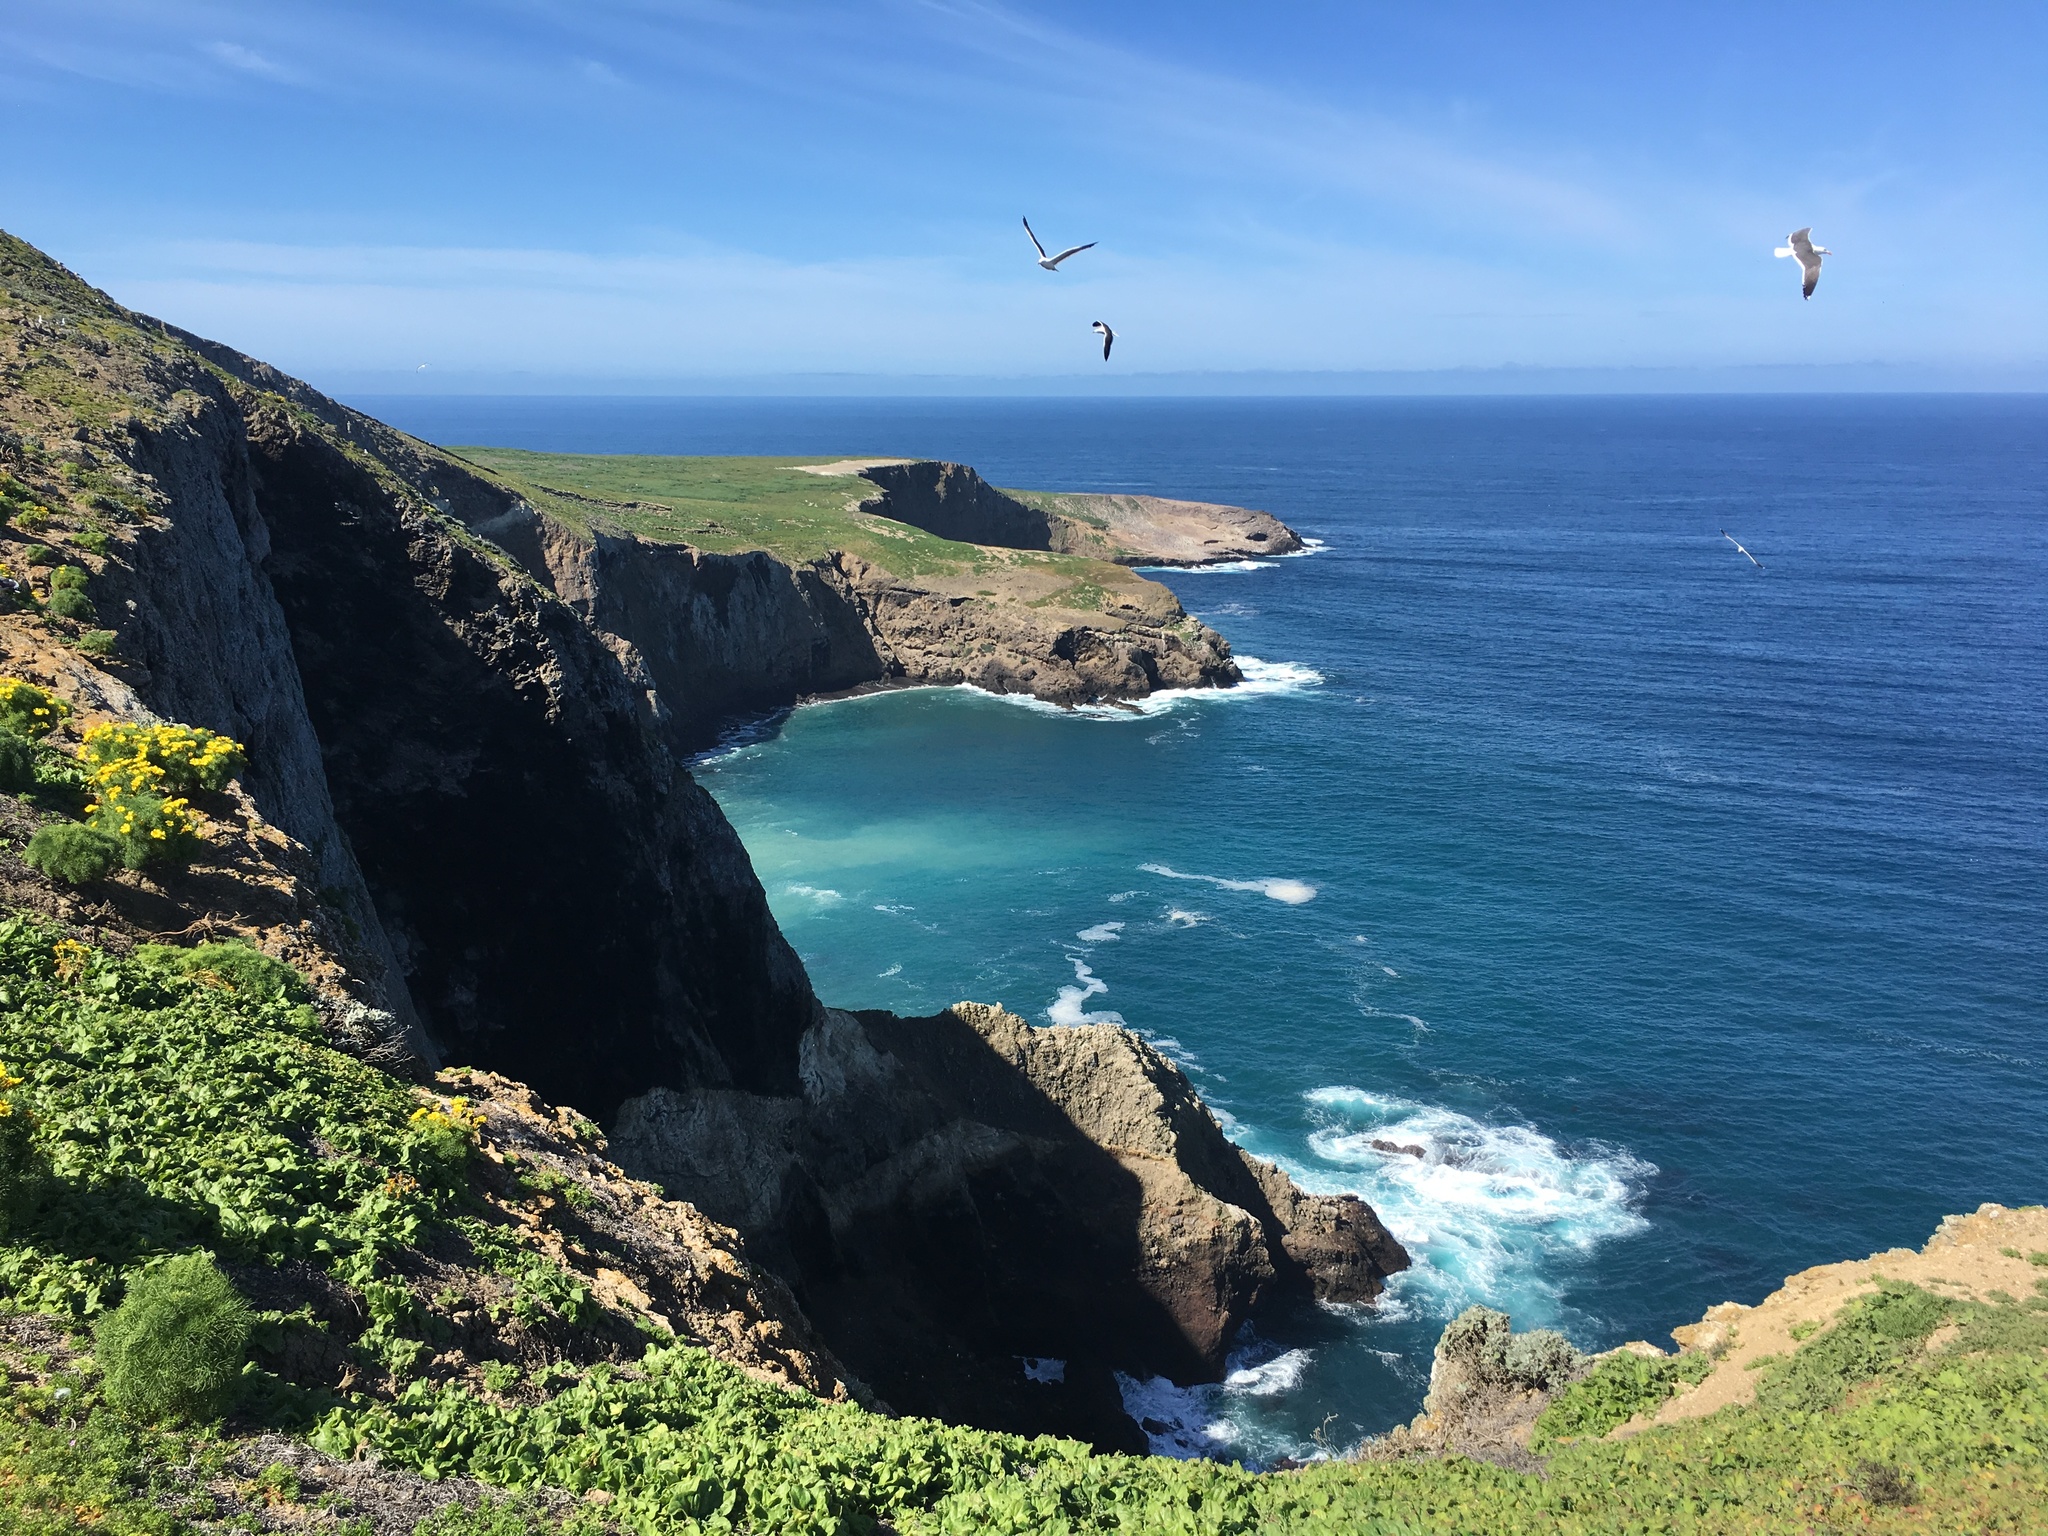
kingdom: Animalia
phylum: Chordata
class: Aves
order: Charadriiformes
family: Laridae
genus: Larus
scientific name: Larus occidentalis
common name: Western gull
